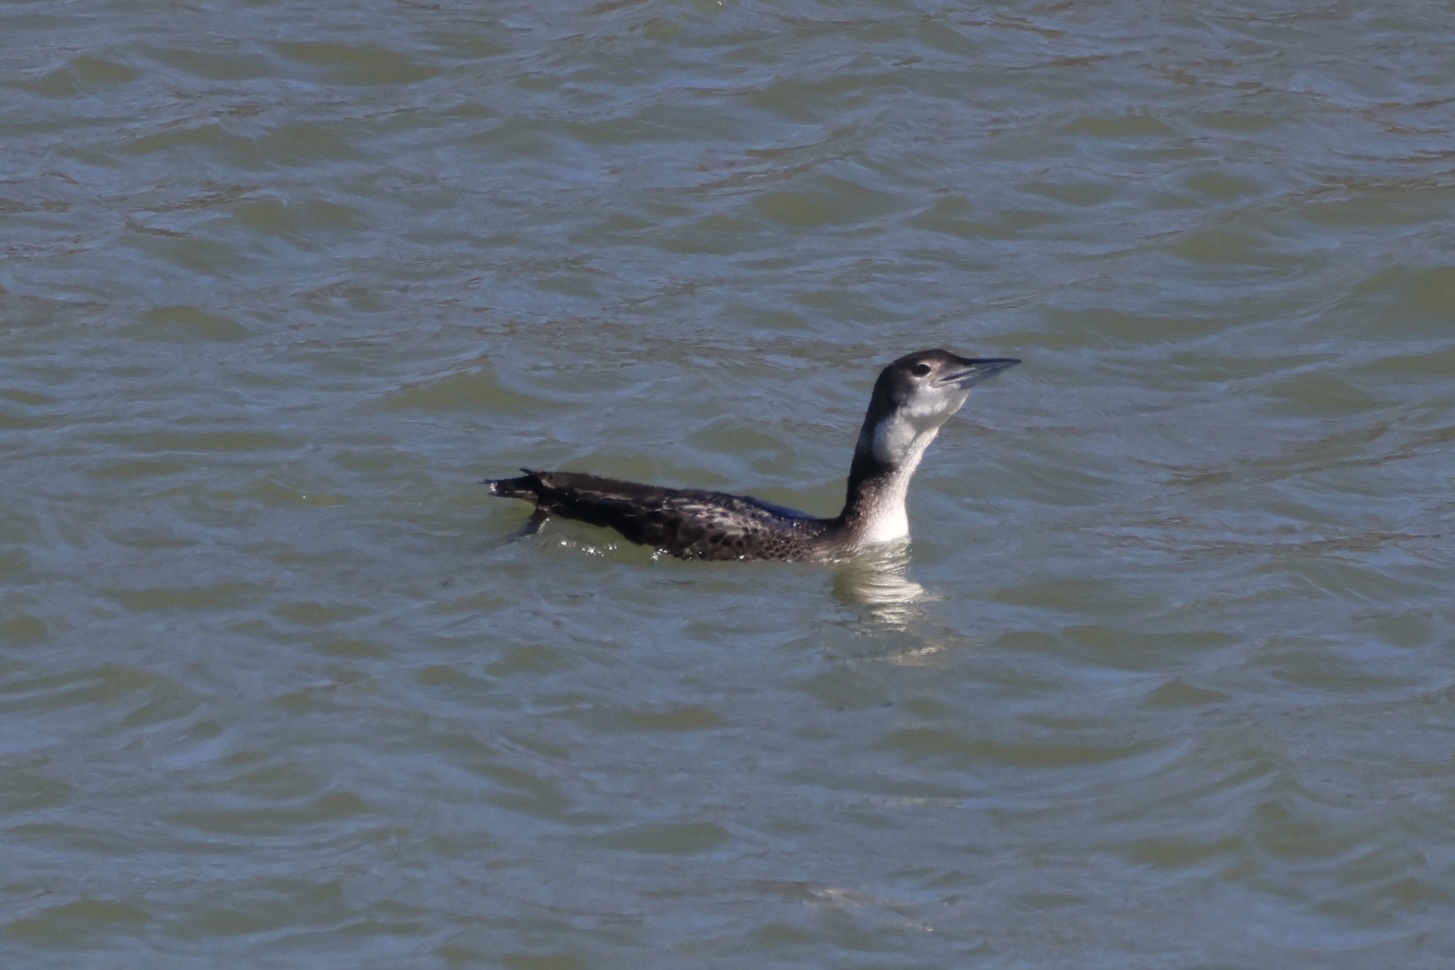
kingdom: Animalia
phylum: Chordata
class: Aves
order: Gaviiformes
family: Gaviidae
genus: Gavia
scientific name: Gavia immer
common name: Common loon
